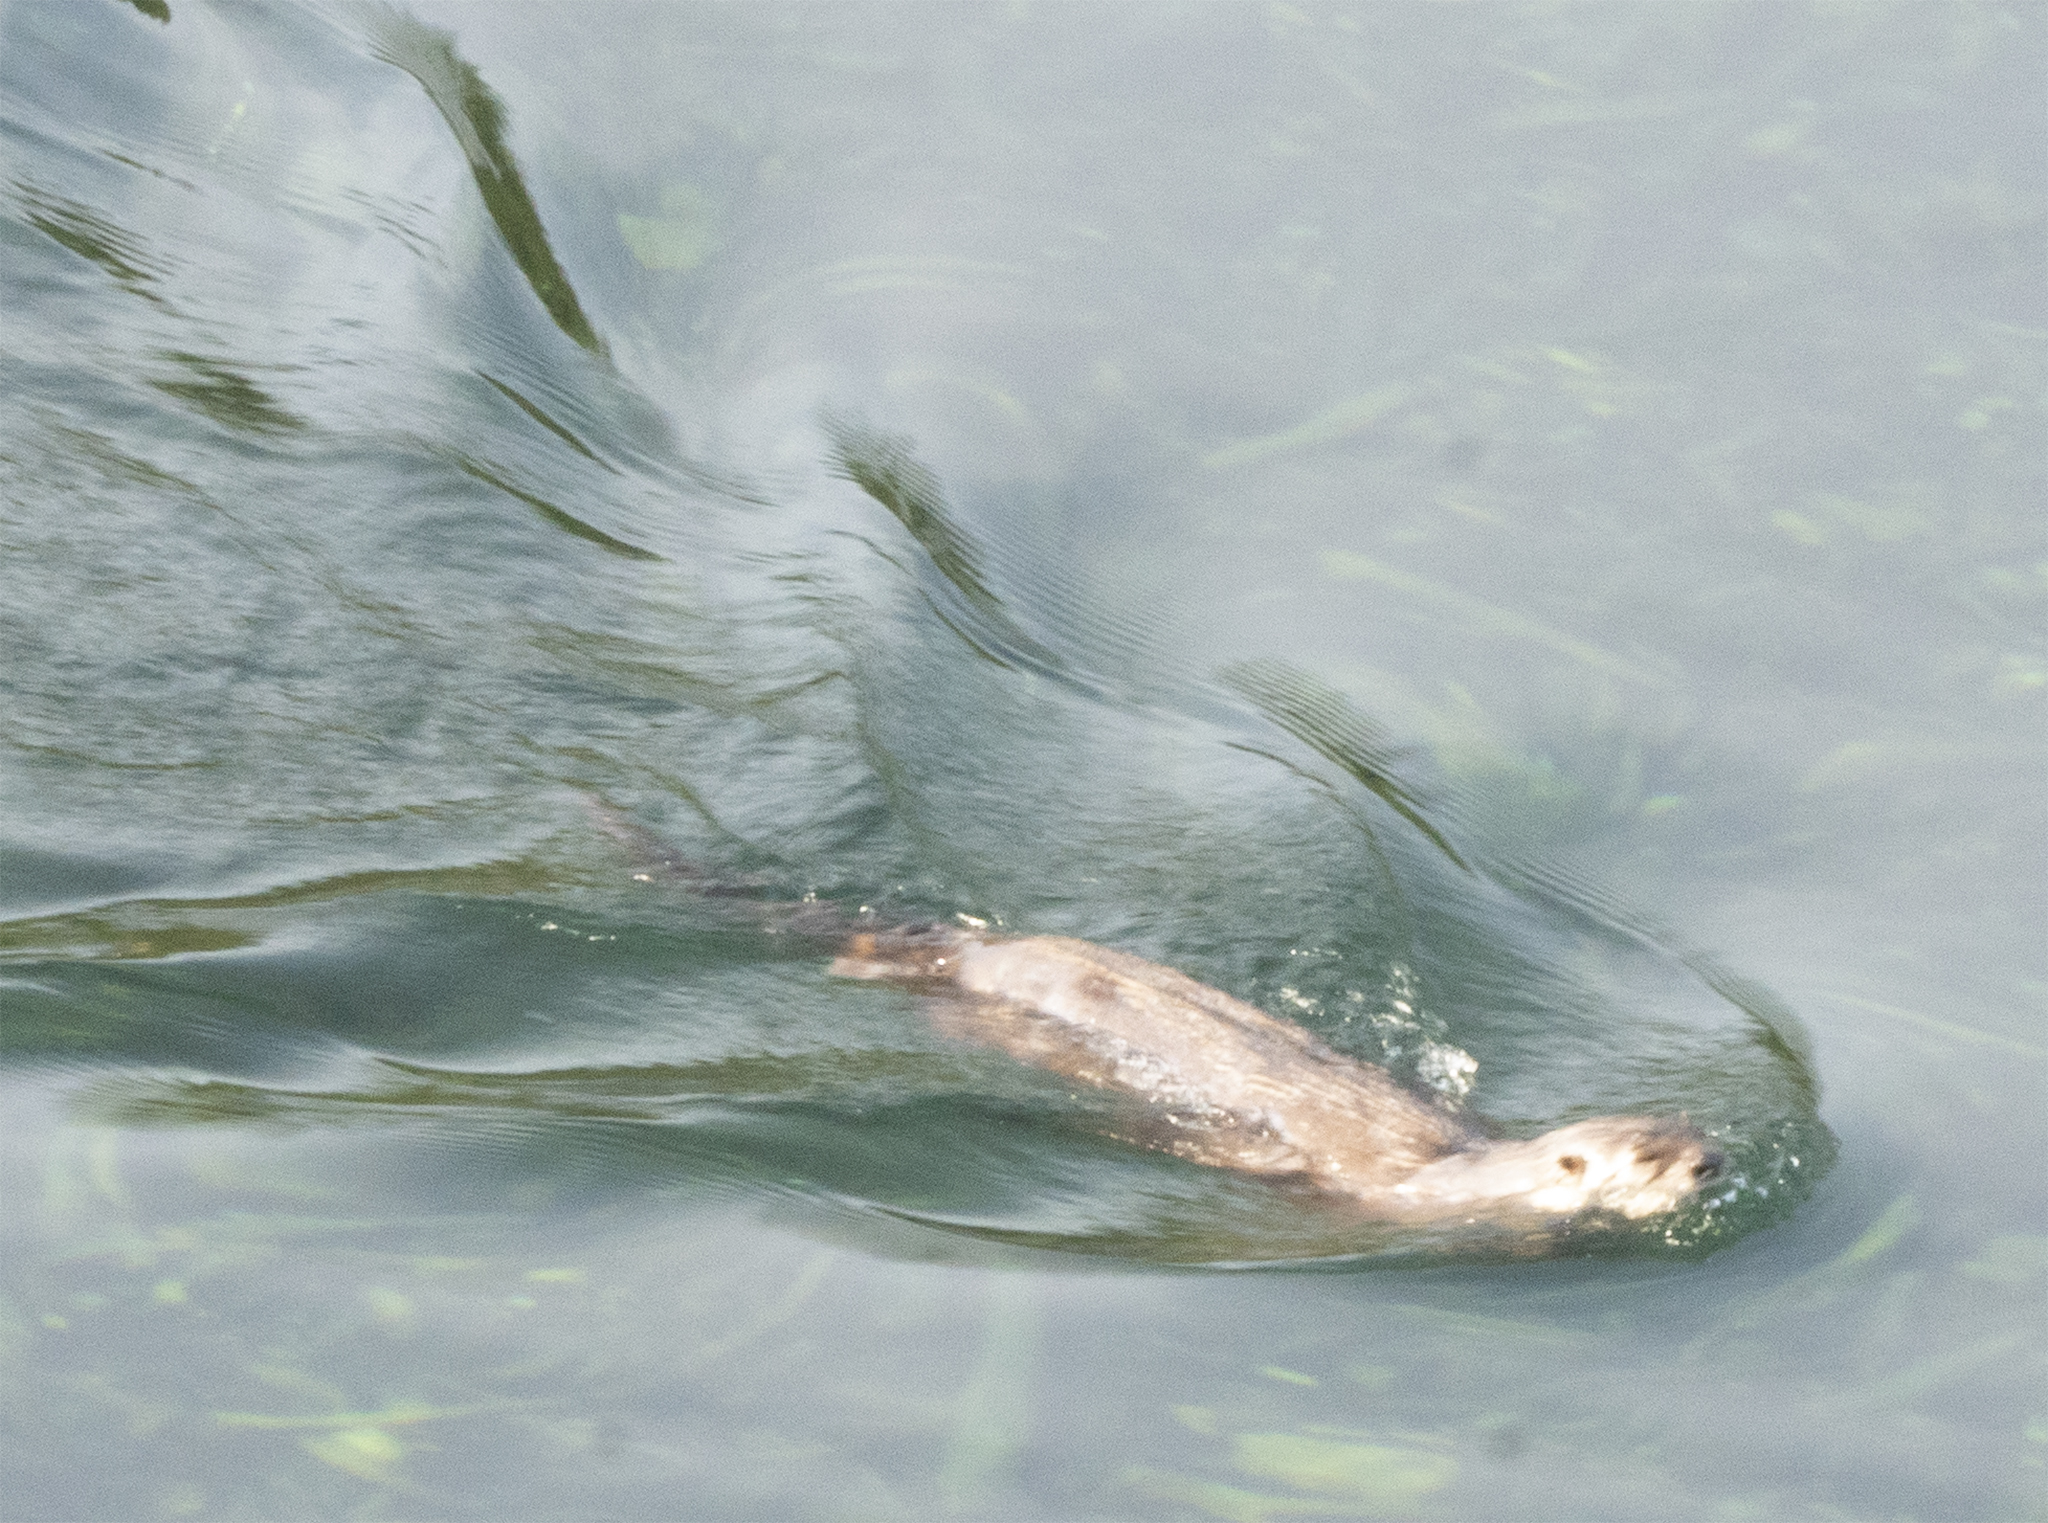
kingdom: Animalia
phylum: Chordata
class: Mammalia
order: Carnivora
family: Mustelidae
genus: Lontra
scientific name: Lontra canadensis
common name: North american river otter
